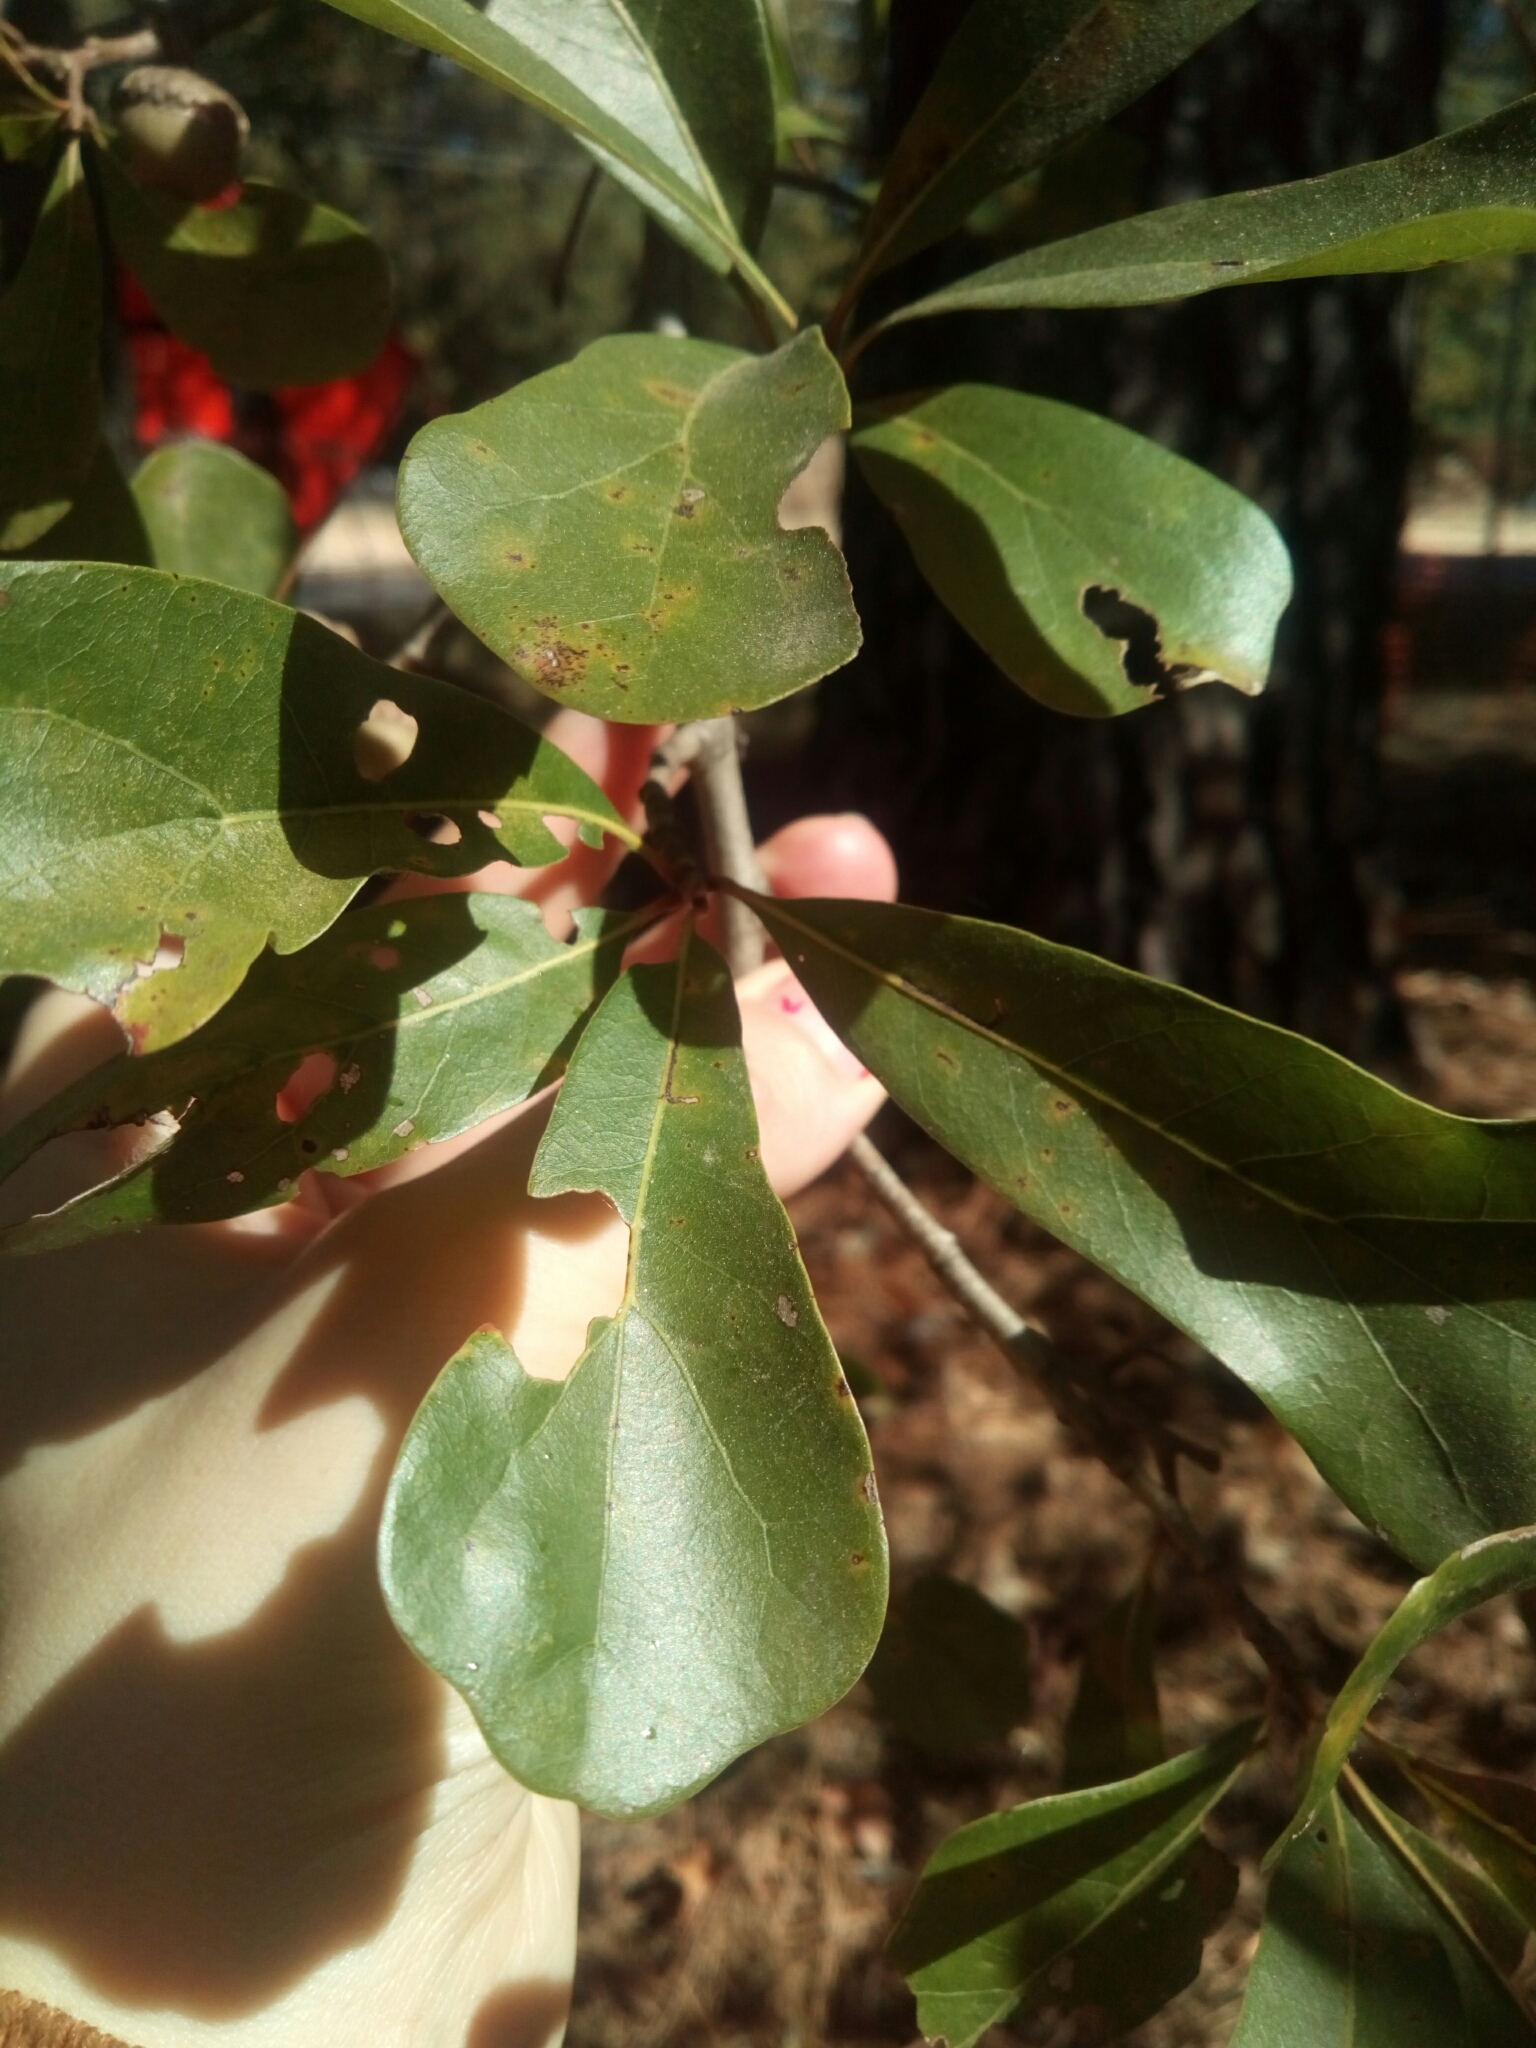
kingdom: Plantae
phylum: Tracheophyta
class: Magnoliopsida
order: Fagales
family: Fagaceae
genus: Quercus
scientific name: Quercus nigra
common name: Water oak
